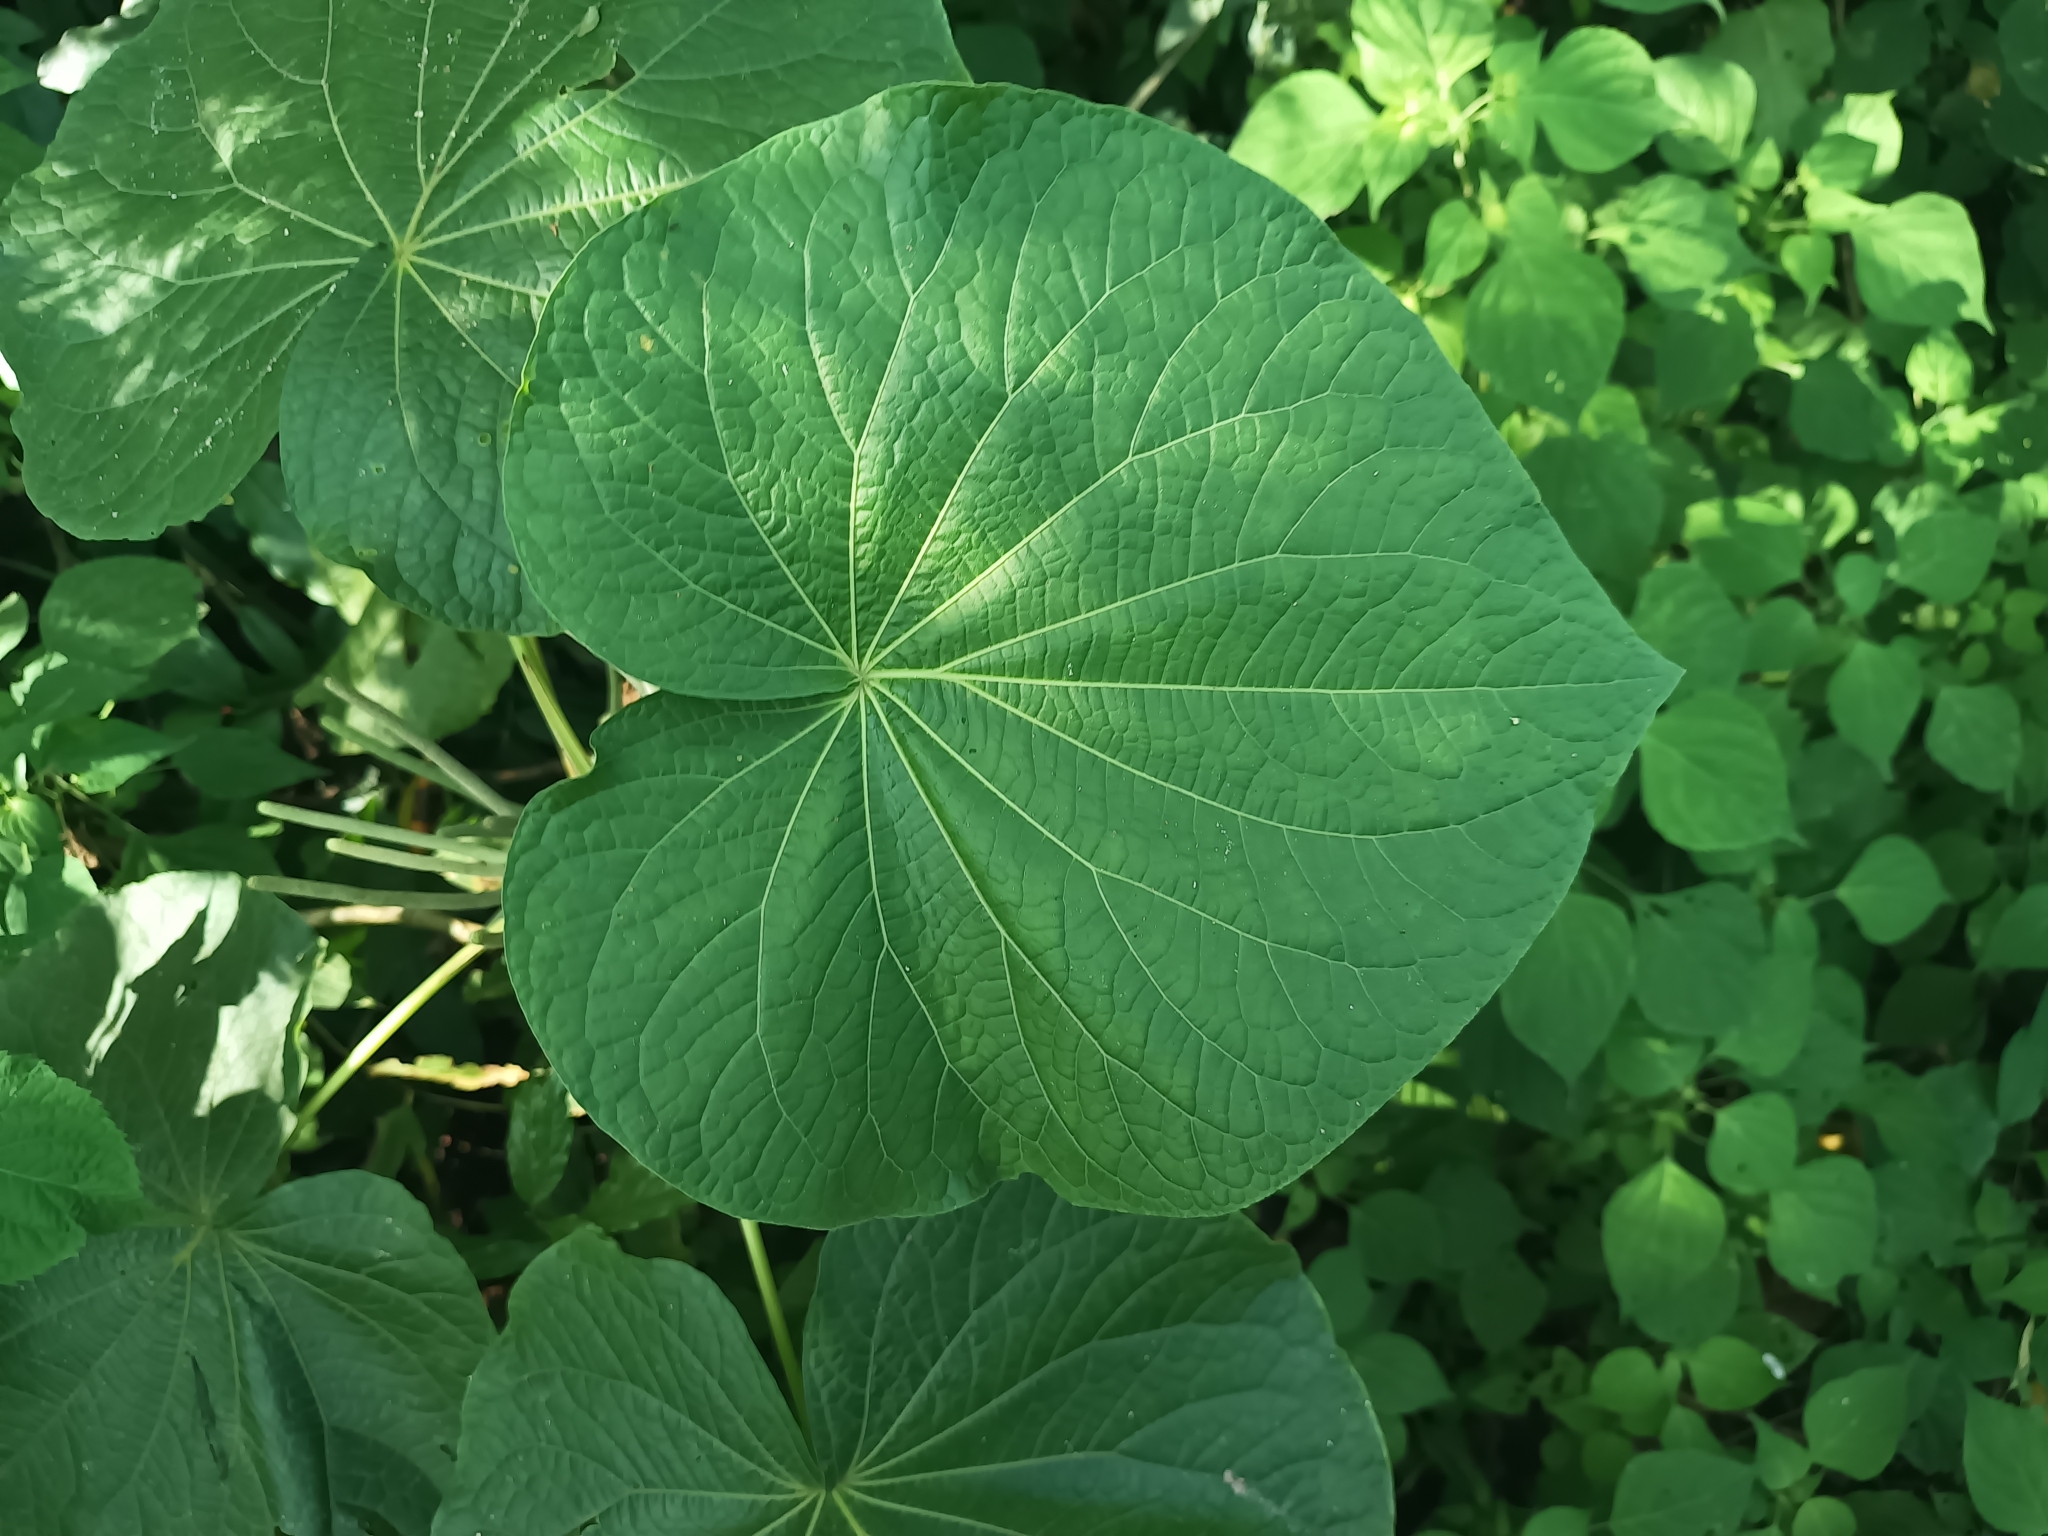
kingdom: Plantae
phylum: Tracheophyta
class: Magnoliopsida
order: Piperales
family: Piperaceae
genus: Piper
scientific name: Piper umbellatum
